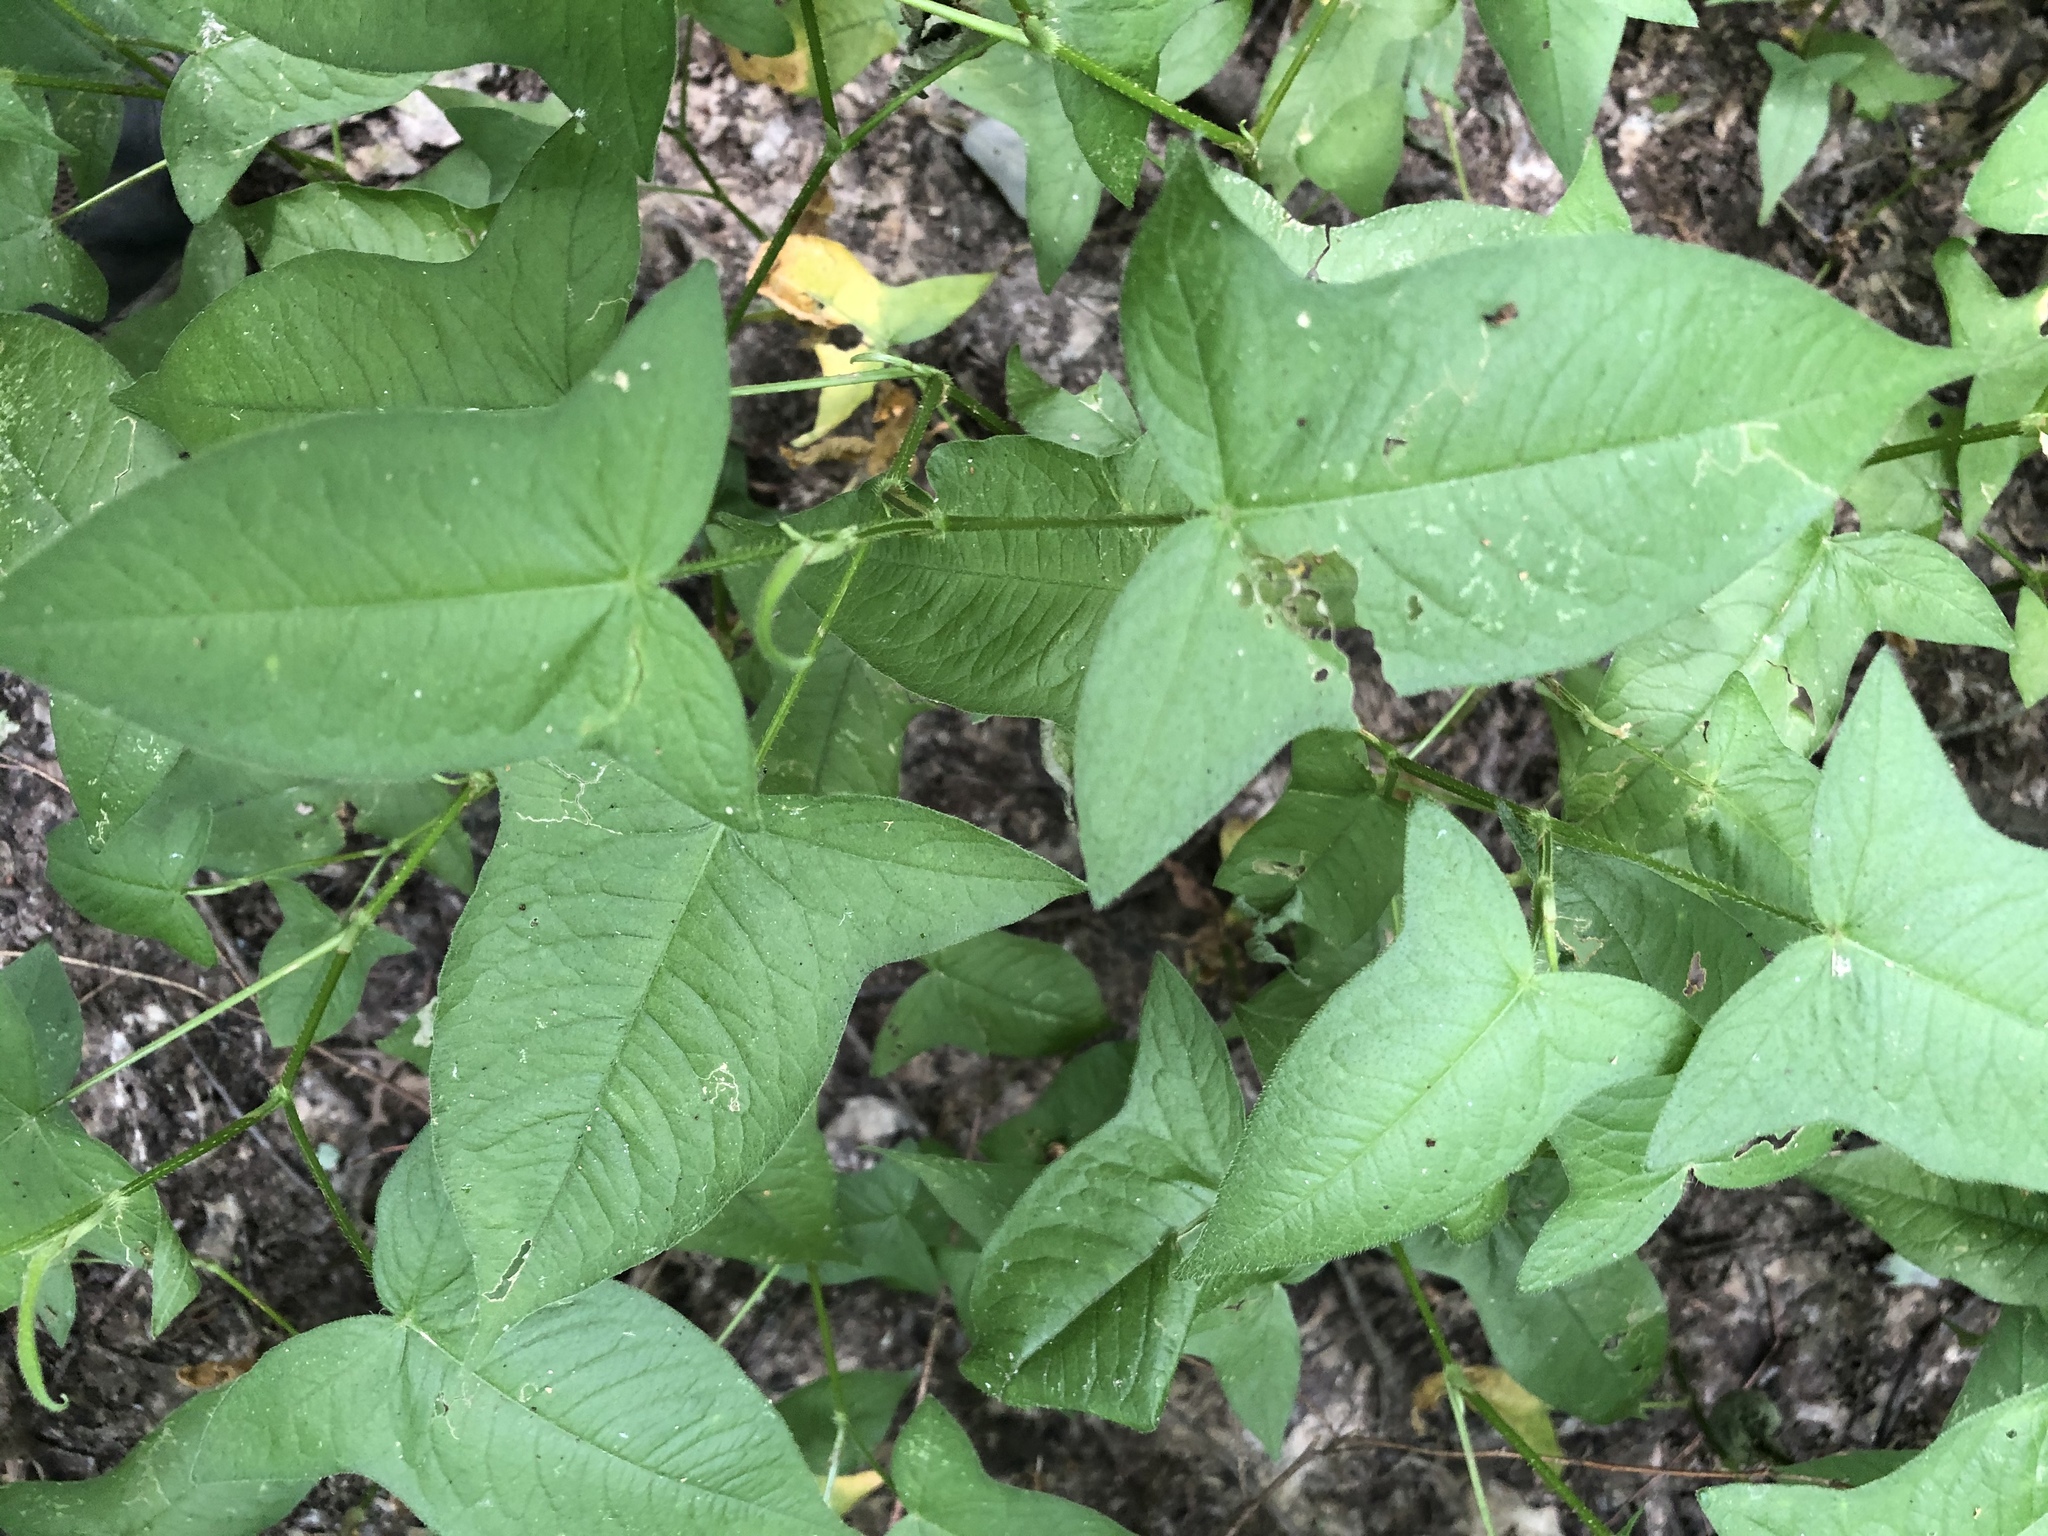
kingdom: Plantae
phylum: Tracheophyta
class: Magnoliopsida
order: Caryophyllales
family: Polygonaceae
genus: Persicaria
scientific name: Persicaria arifolia
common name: Halberd-leaved tear-thumb
